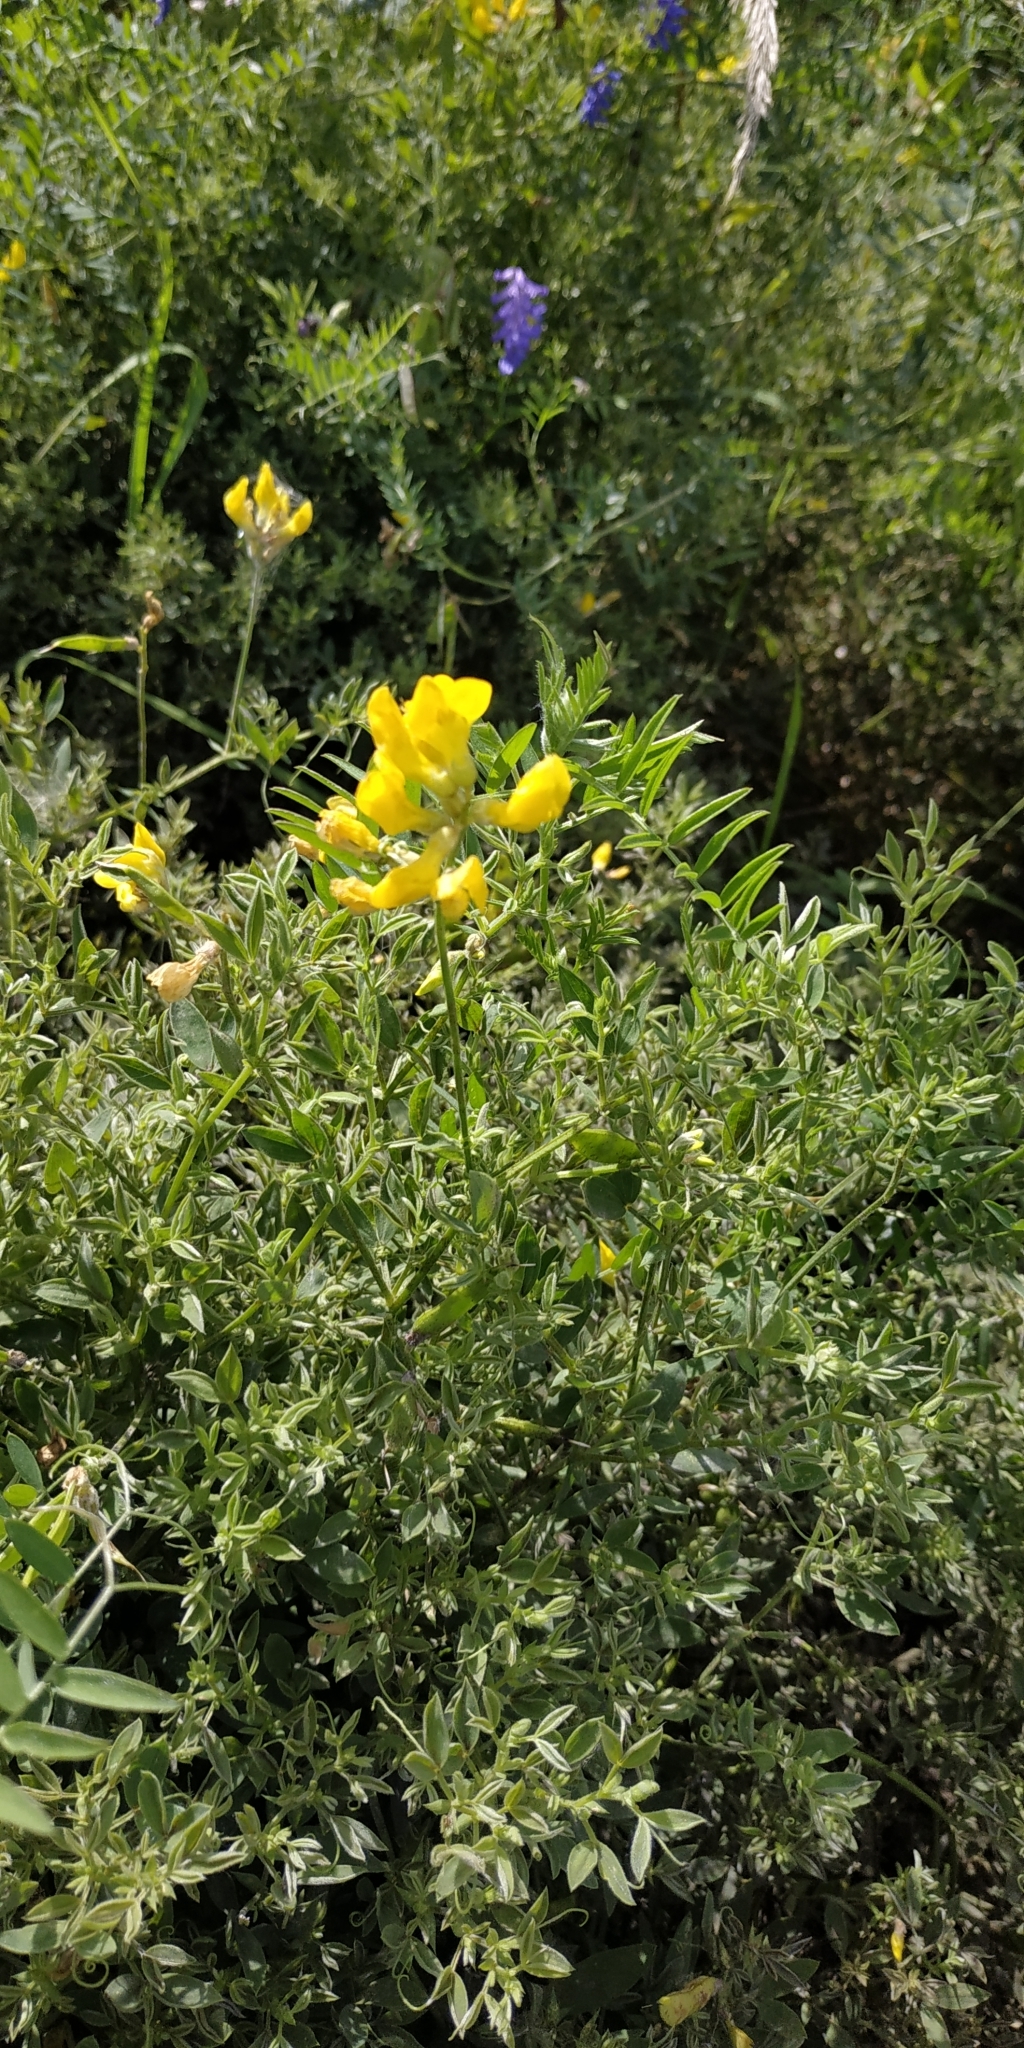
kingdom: Plantae
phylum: Tracheophyta
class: Magnoliopsida
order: Fabales
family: Fabaceae
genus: Lathyrus
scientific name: Lathyrus pratensis
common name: Meadow vetchling
